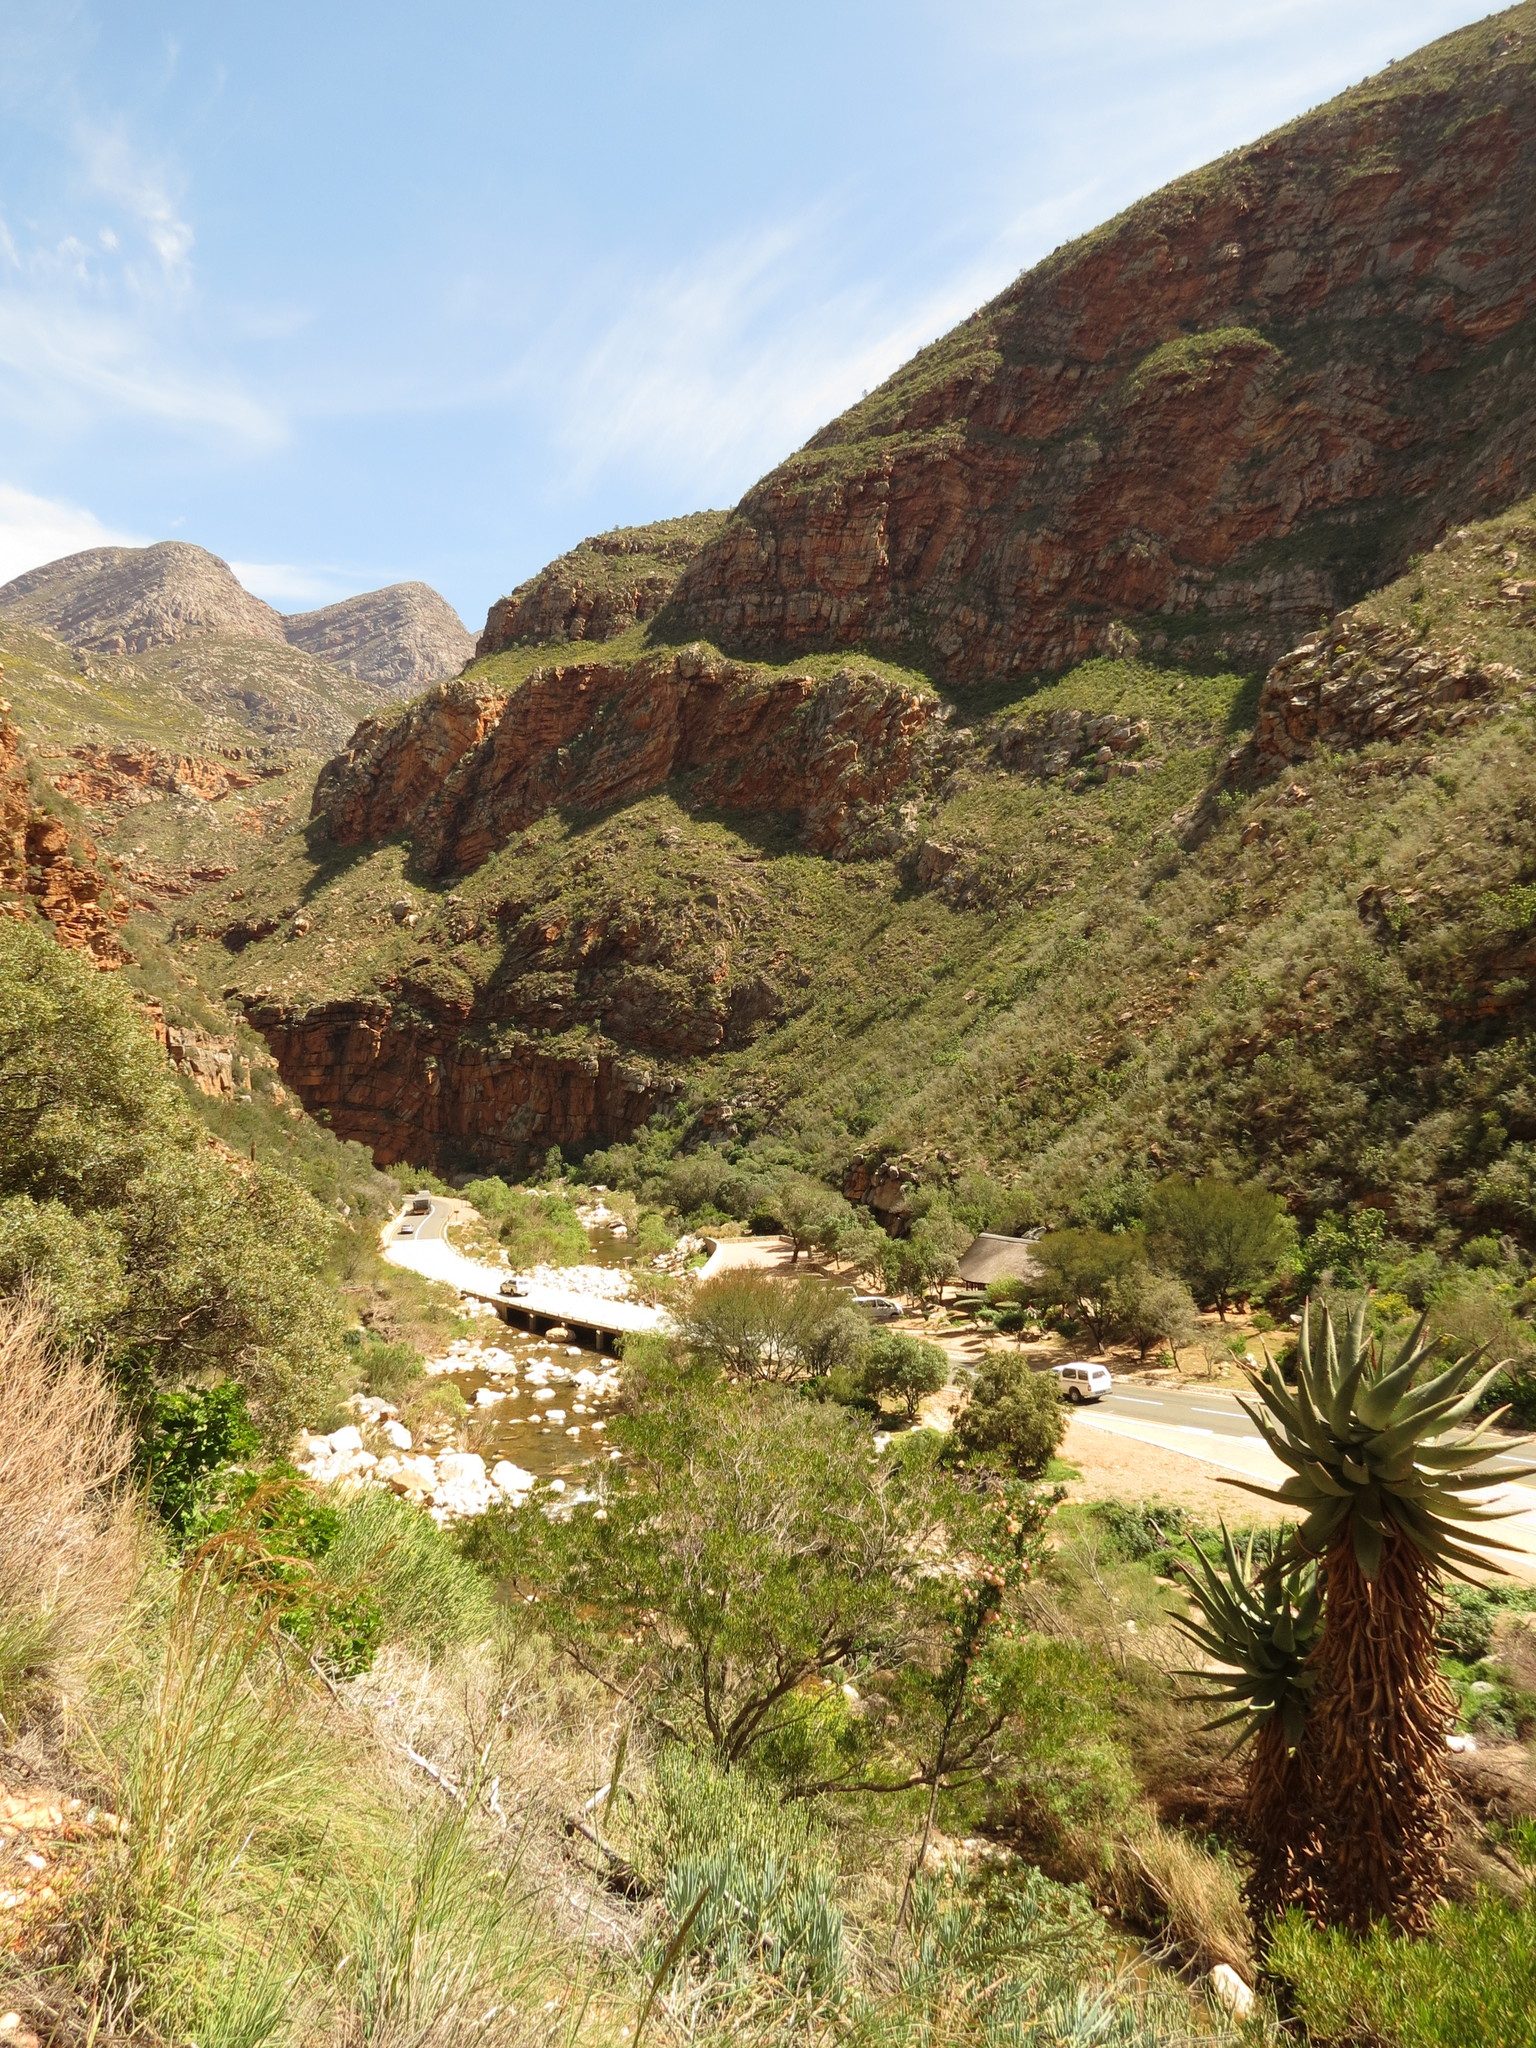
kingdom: Plantae
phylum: Tracheophyta
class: Liliopsida
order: Asparagales
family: Asphodelaceae
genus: Aloe
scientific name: Aloe ferox
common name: Bitter aloe
